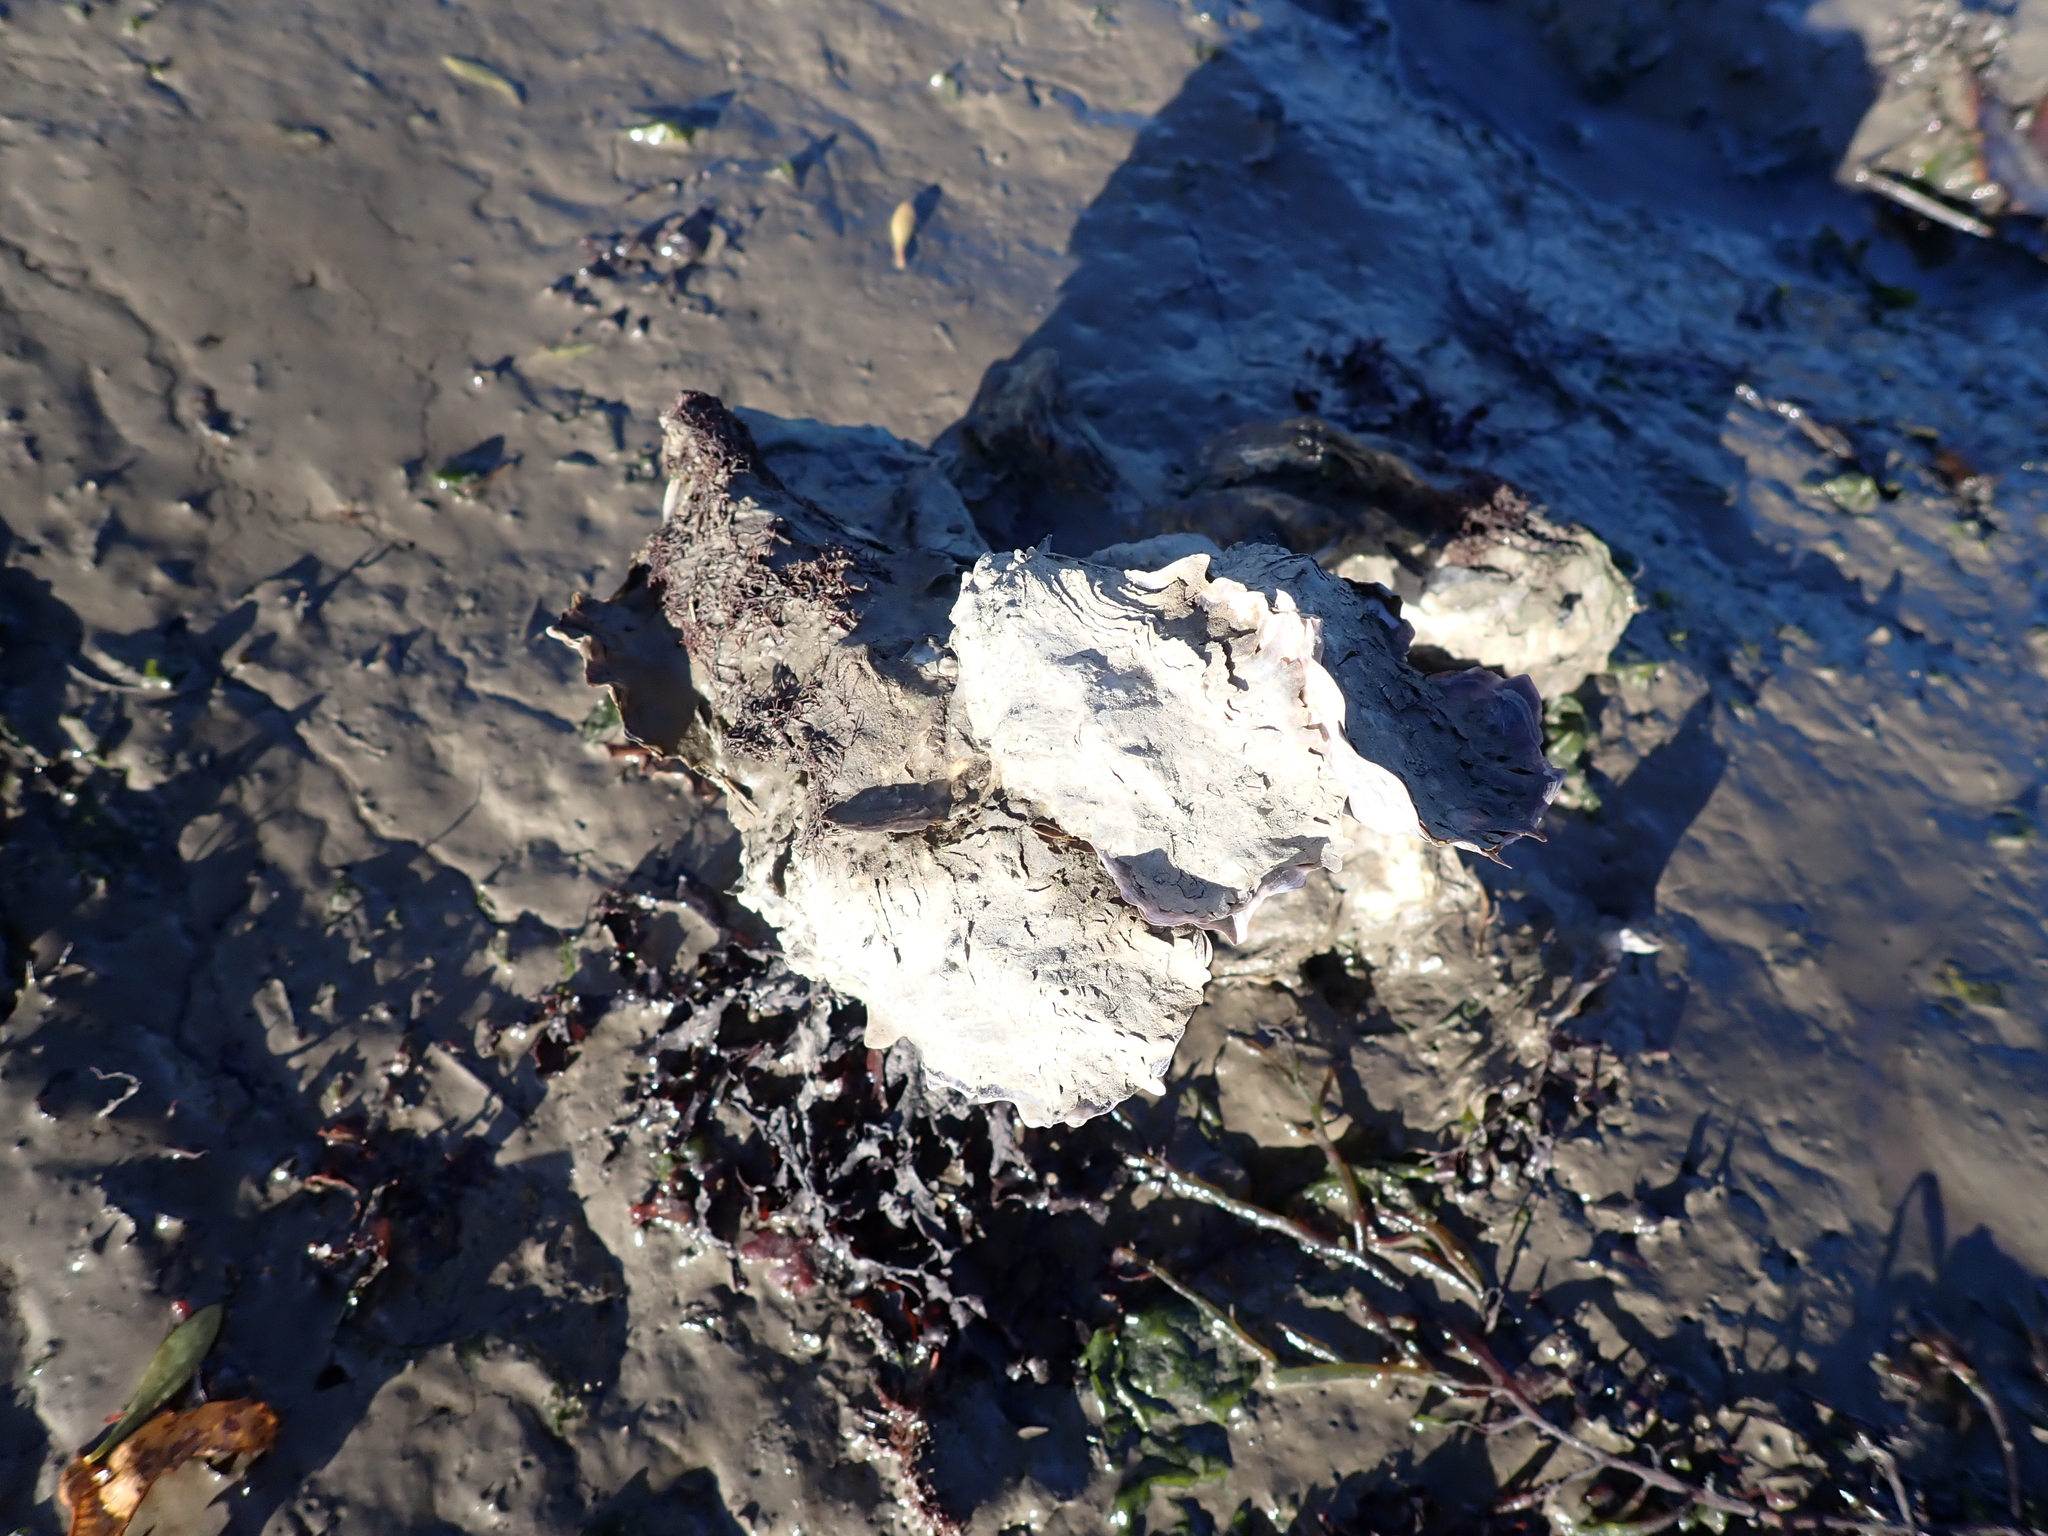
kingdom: Animalia
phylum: Mollusca
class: Bivalvia
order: Ostreida
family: Ostreidae
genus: Magallana
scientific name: Magallana gigas
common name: Pacific oyster
